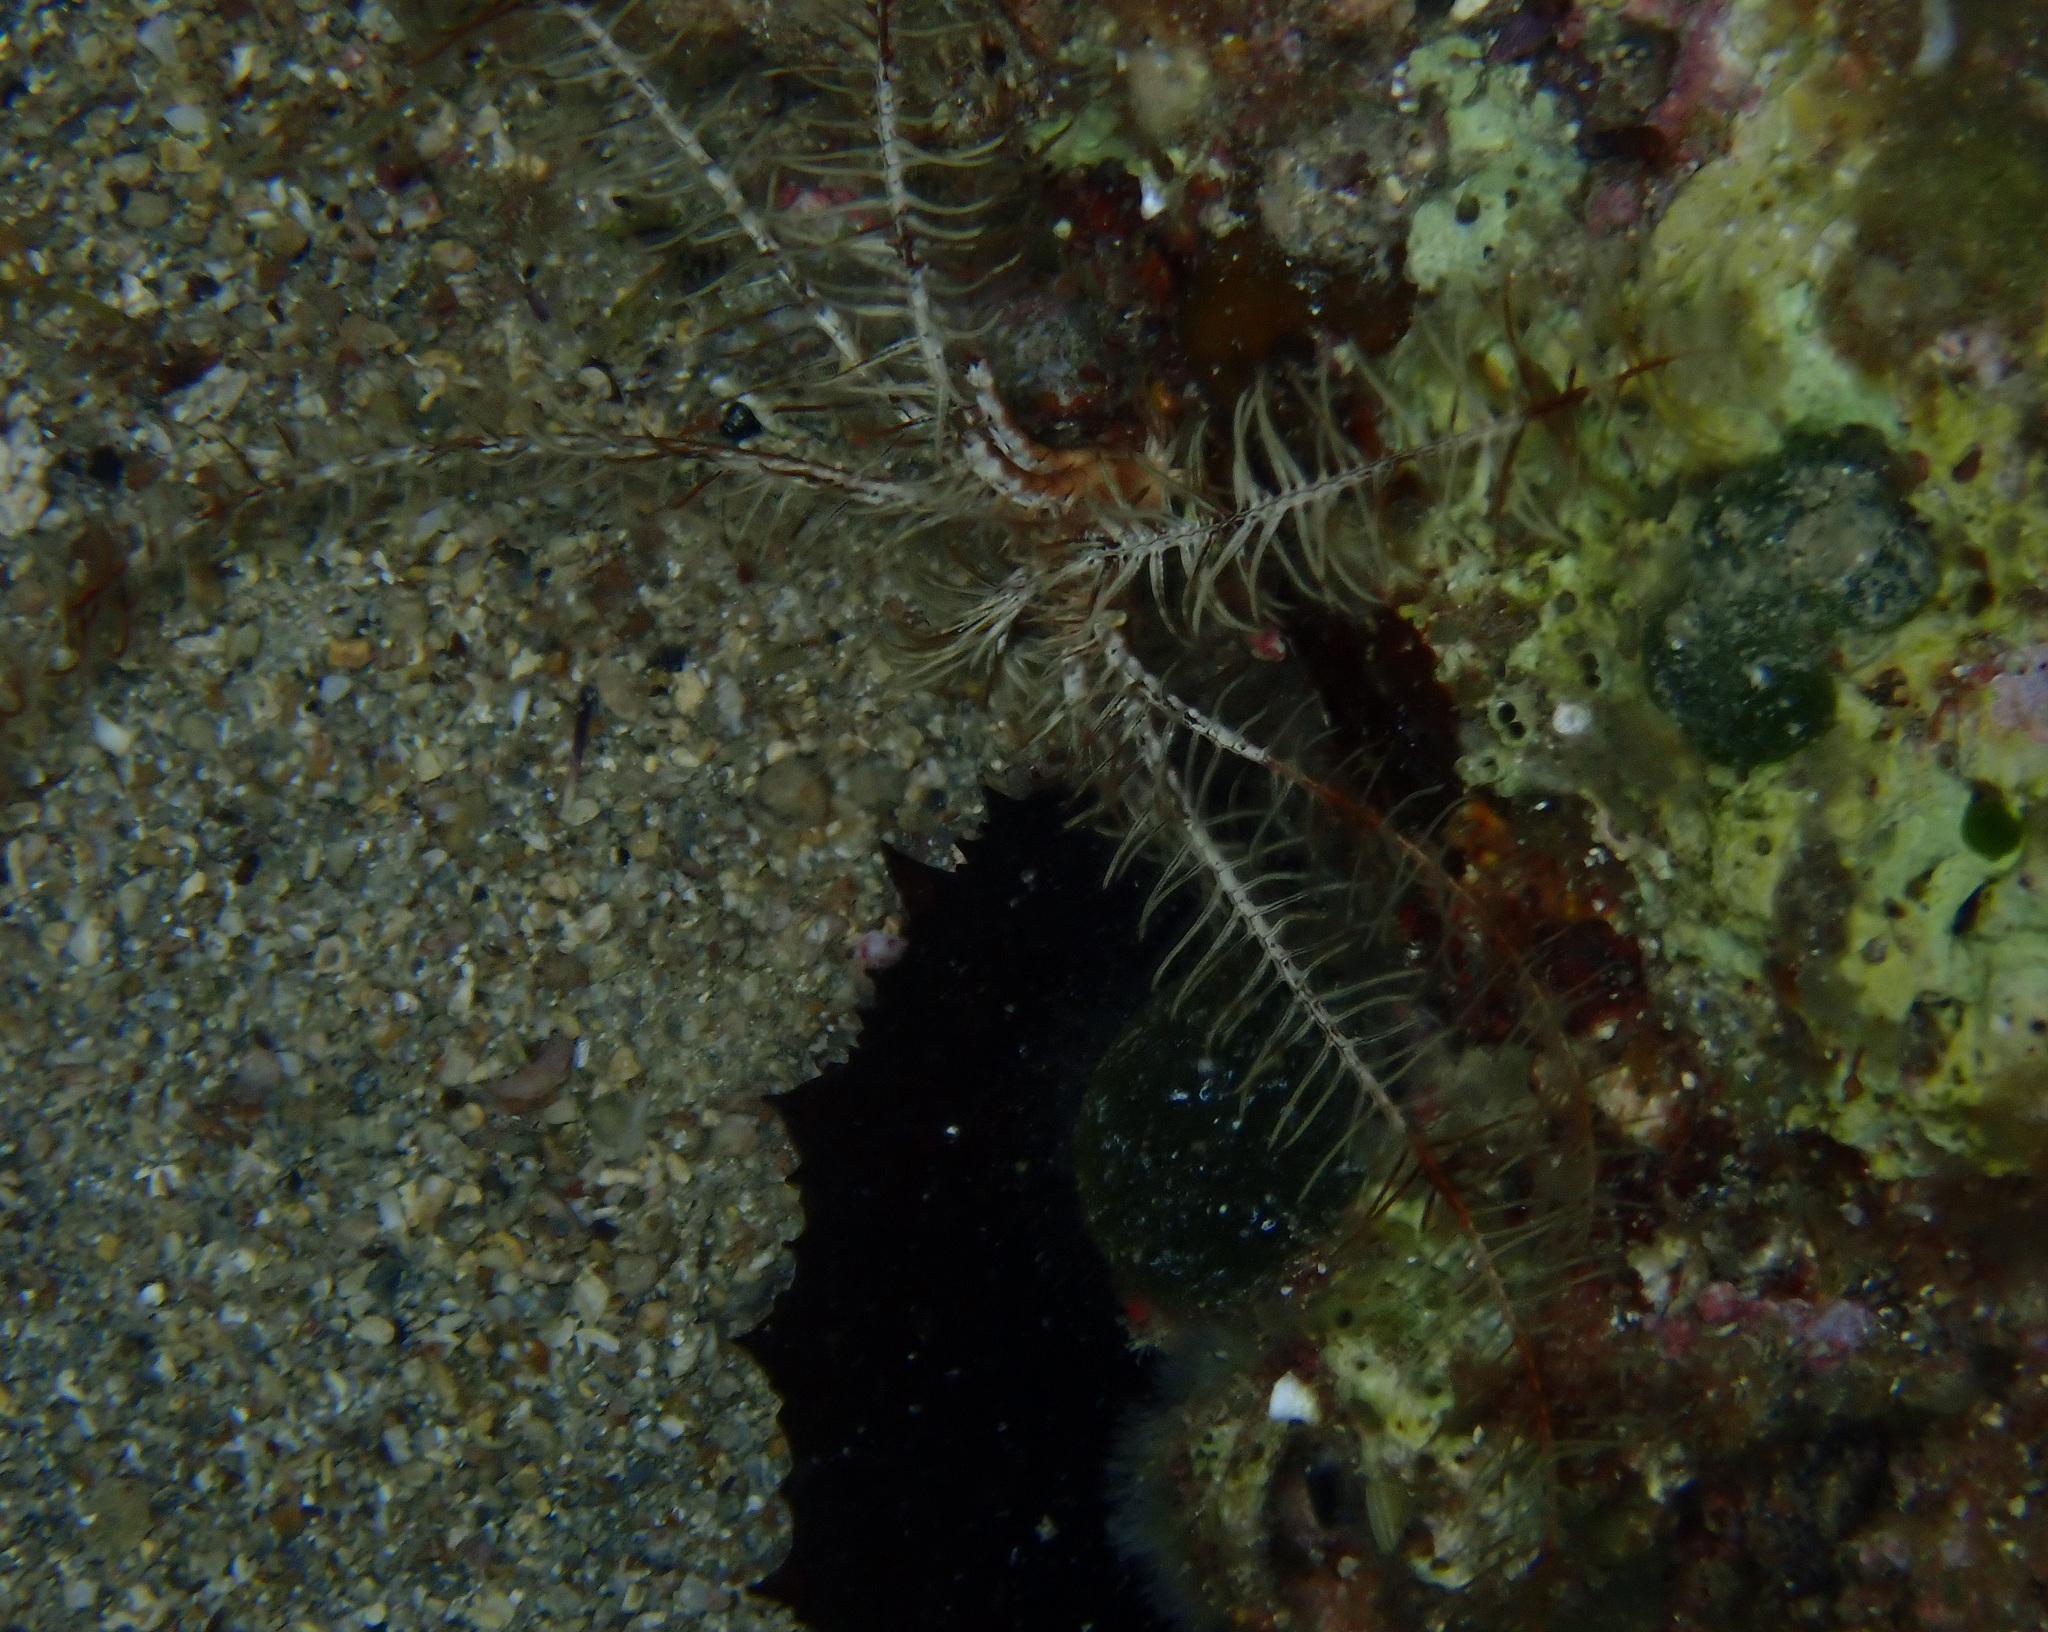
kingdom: Animalia
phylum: Echinodermata
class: Crinoidea
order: Comatulida
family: Antedonidae
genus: Antedon
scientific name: Antedon mediterranea
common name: Feather star
